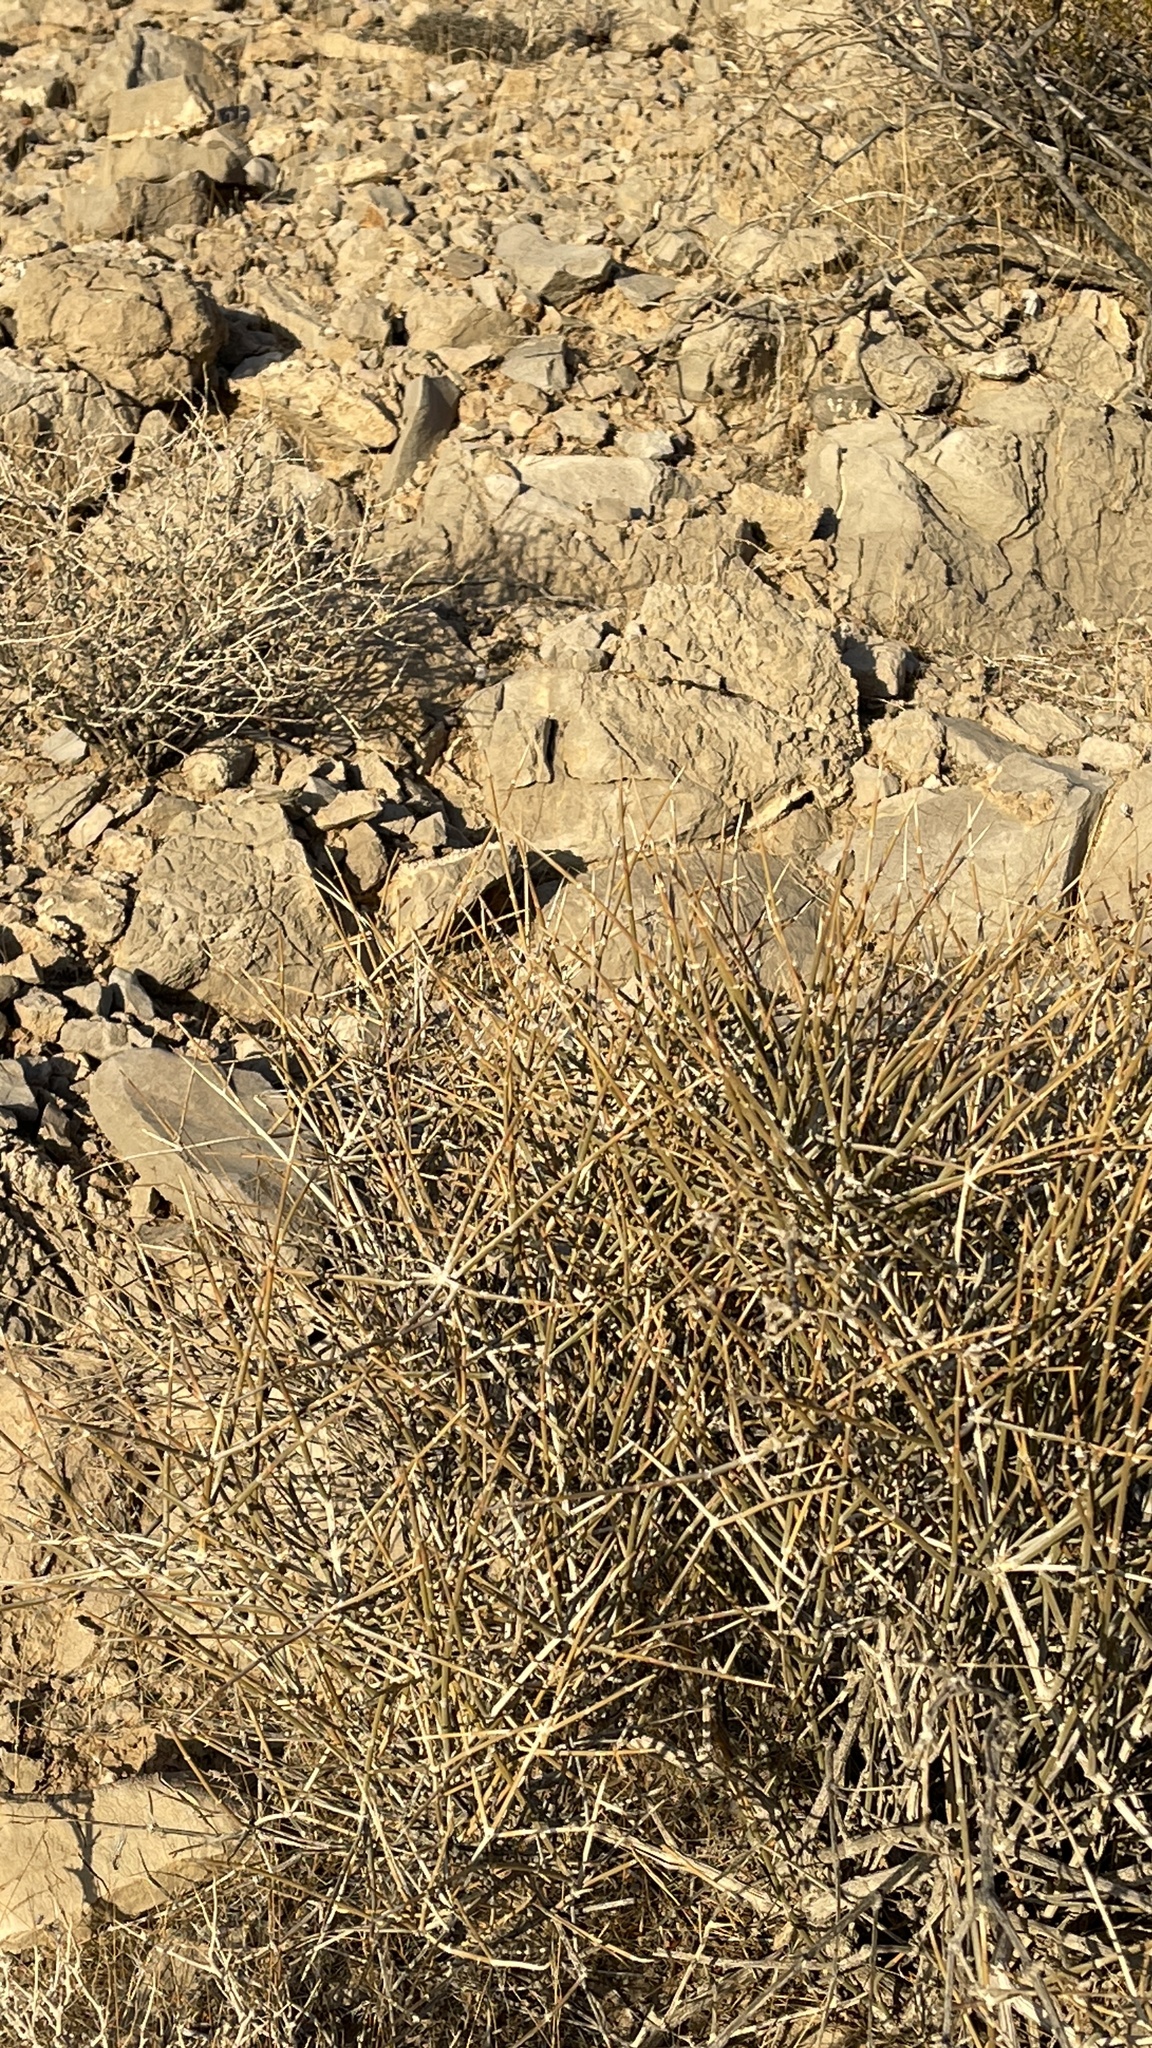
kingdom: Plantae
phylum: Tracheophyta
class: Gnetopsida
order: Ephedrales
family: Ephedraceae
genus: Ephedra
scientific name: Ephedra nevadensis
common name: Gray ephedra
